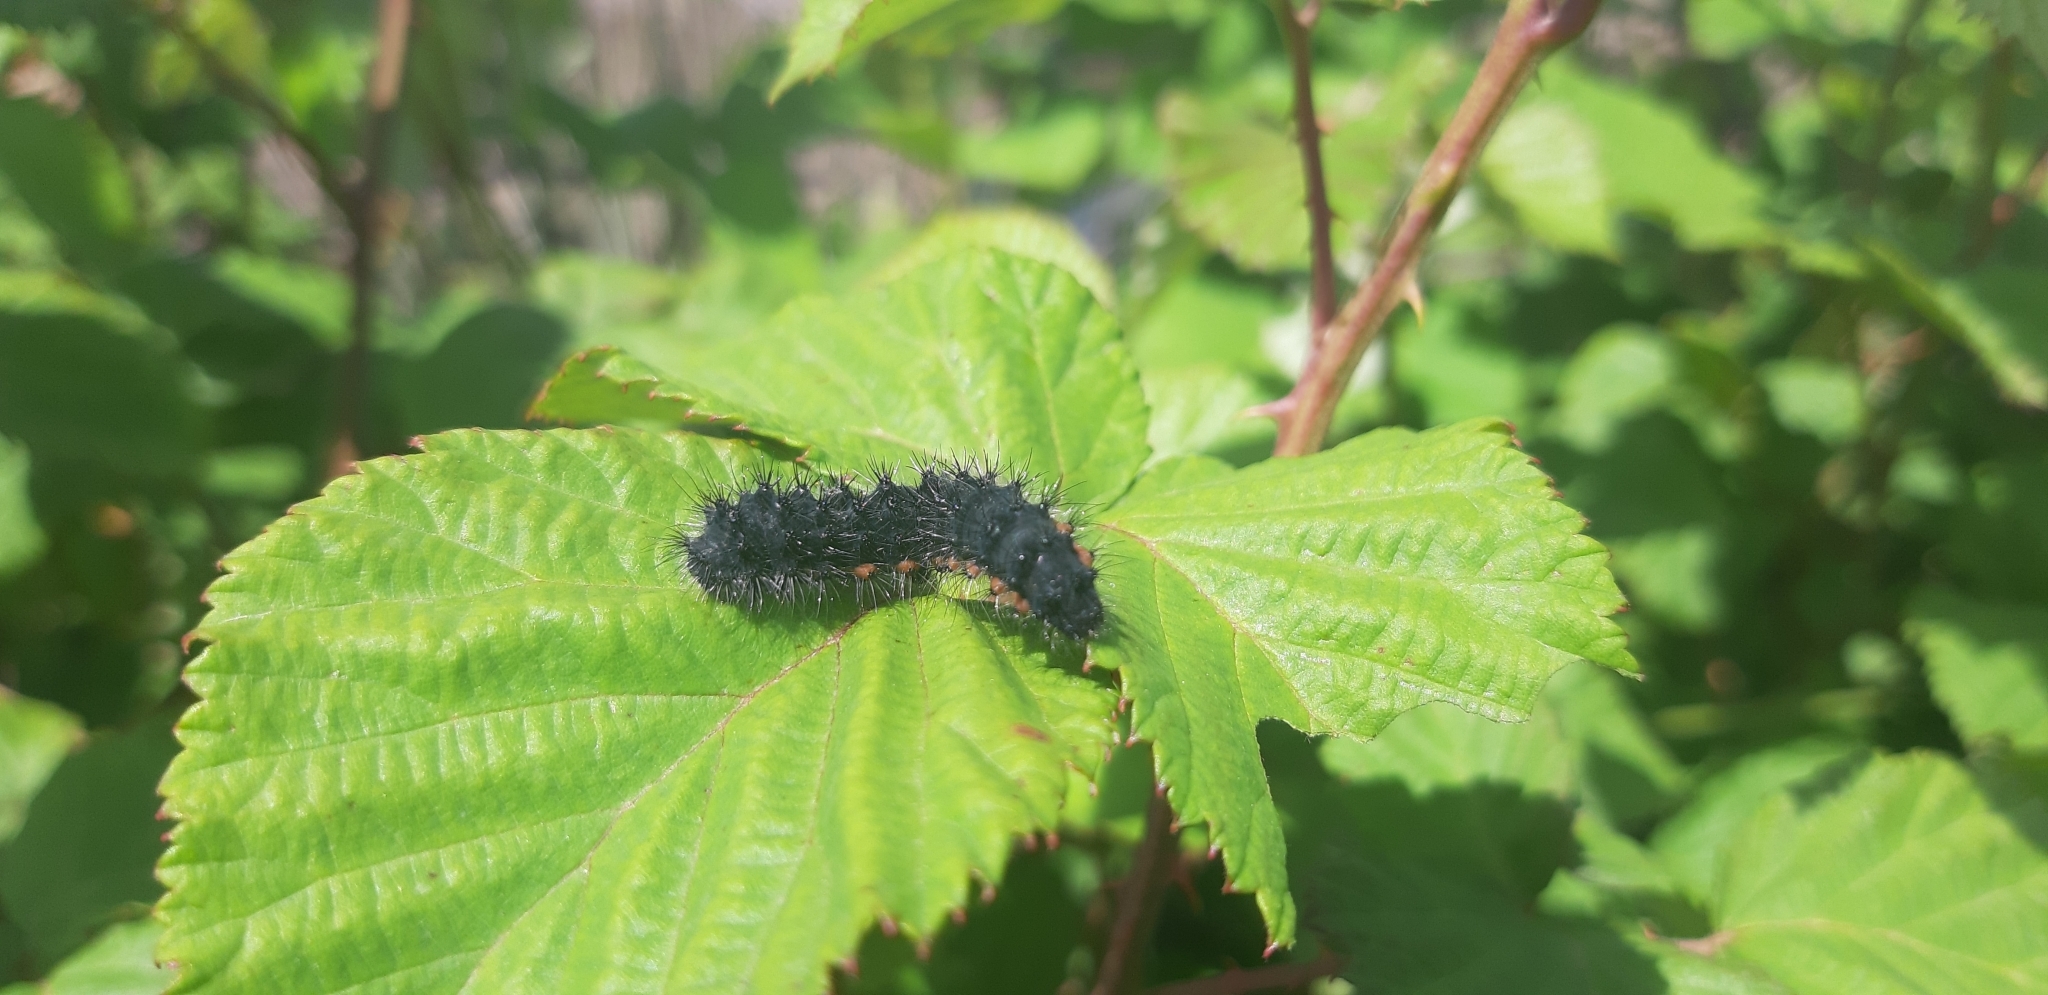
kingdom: Animalia
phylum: Arthropoda
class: Insecta
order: Lepidoptera
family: Saturniidae
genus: Saturnia
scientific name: Saturnia pavoniella
